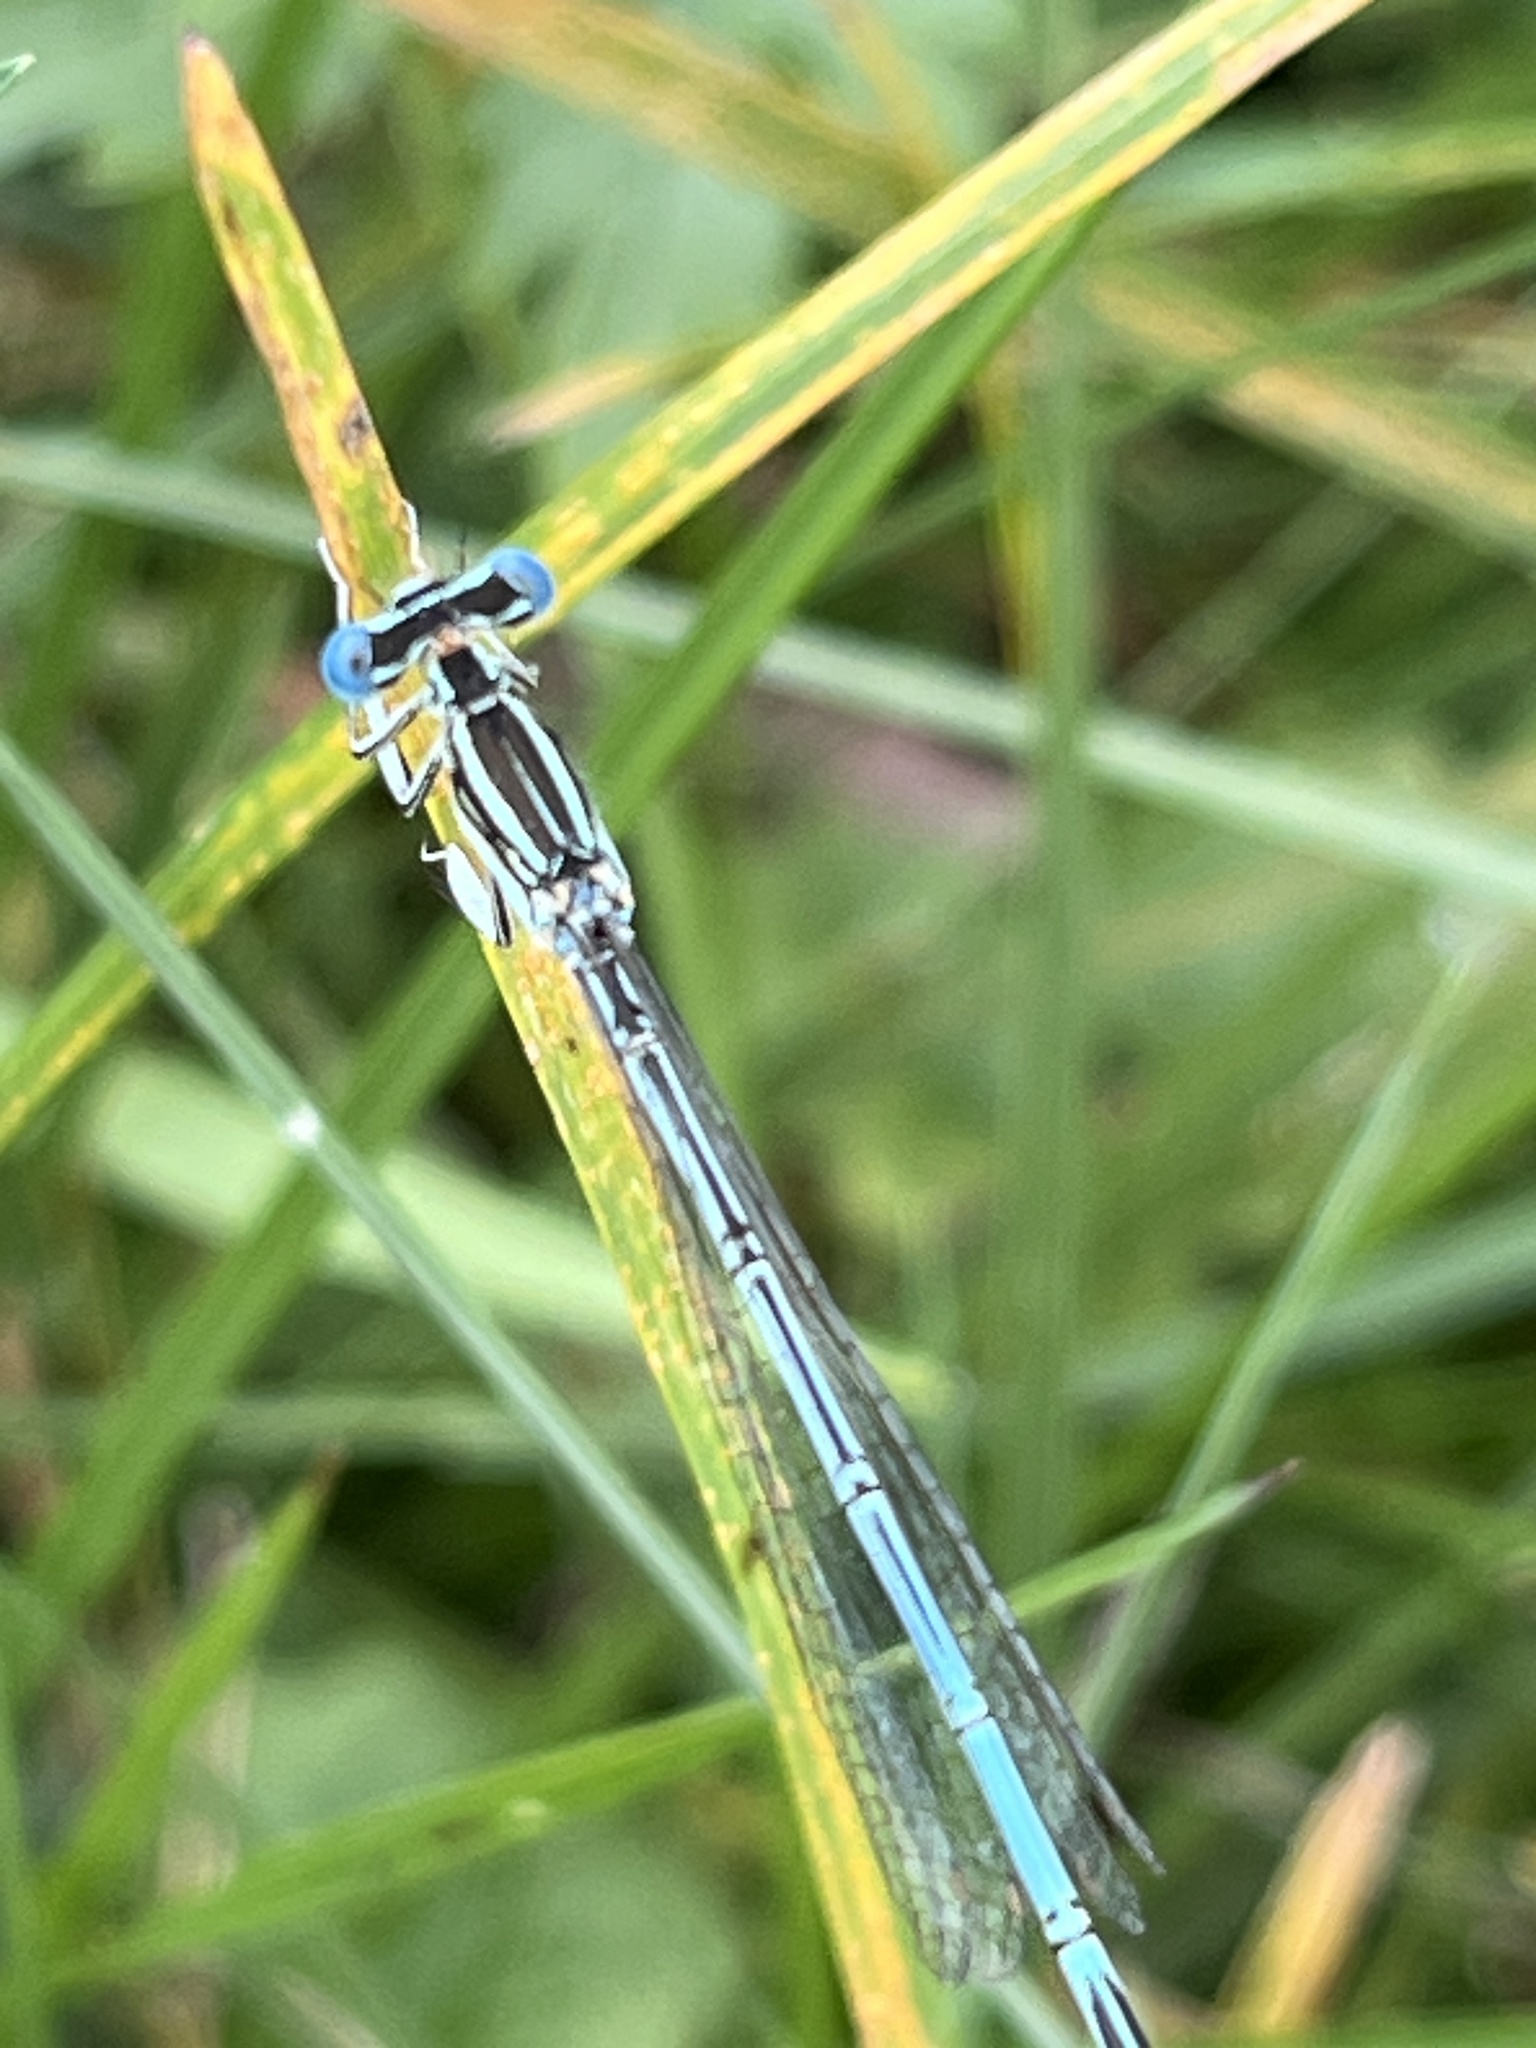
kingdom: Animalia
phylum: Arthropoda
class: Insecta
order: Odonata
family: Platycnemididae
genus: Platycnemis
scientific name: Platycnemis pennipes
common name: White-legged damselfly
